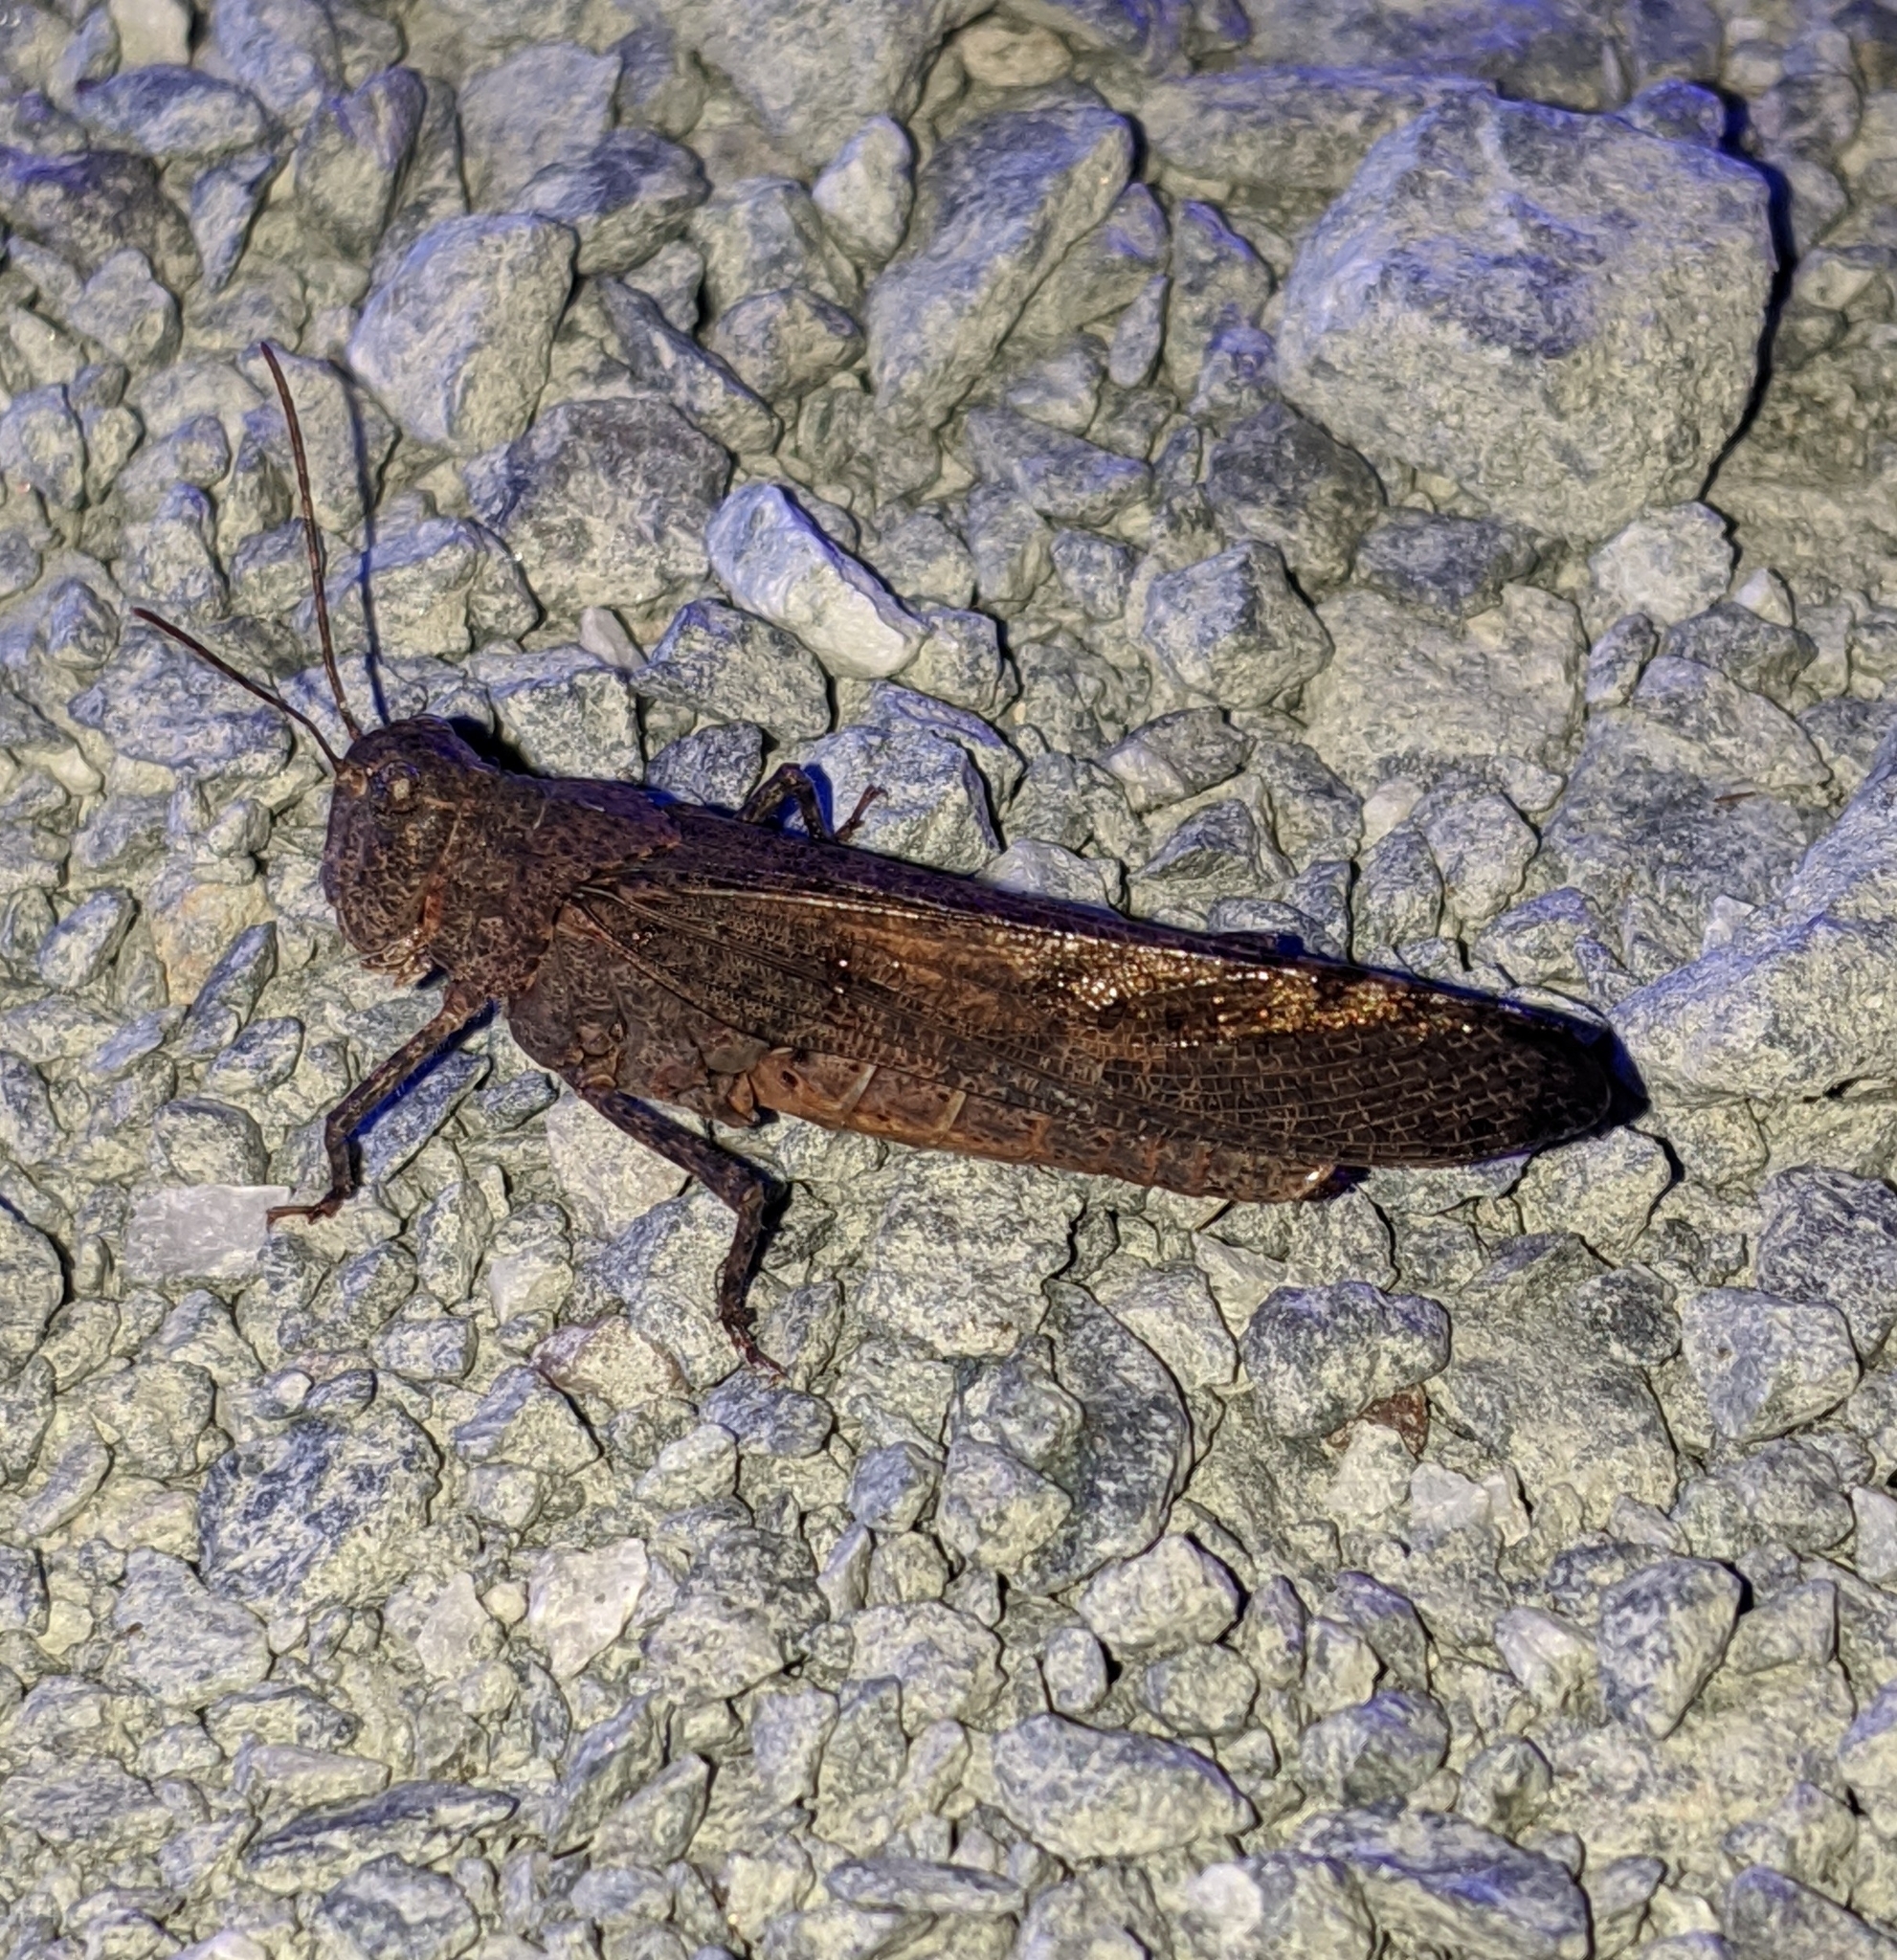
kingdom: Animalia
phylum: Arthropoda
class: Insecta
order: Orthoptera
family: Acrididae
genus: Trimerotropis
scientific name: Trimerotropis verruculata
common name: Crackling forest grasshopper
